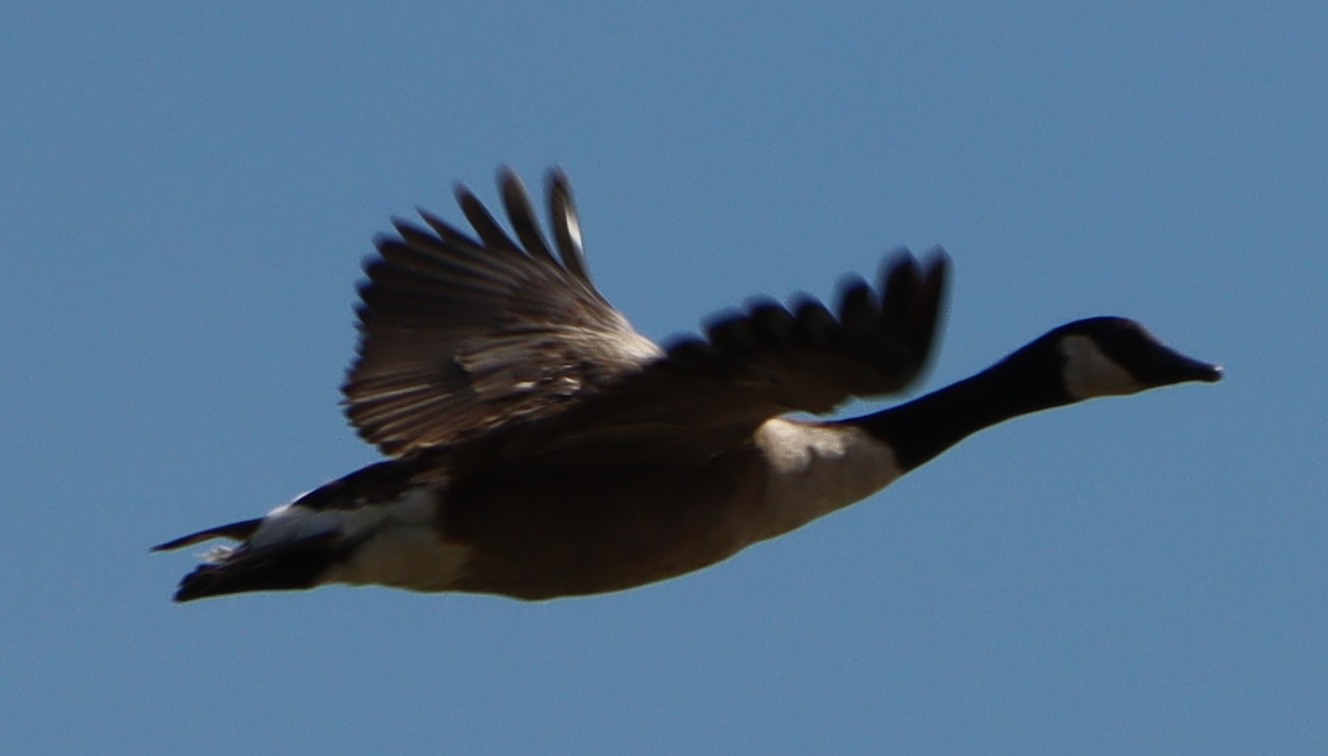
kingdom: Animalia
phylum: Chordata
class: Aves
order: Anseriformes
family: Anatidae
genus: Branta
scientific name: Branta canadensis
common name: Canada goose
